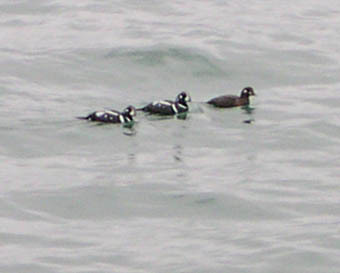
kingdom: Animalia
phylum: Chordata
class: Aves
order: Anseriformes
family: Anatidae
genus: Histrionicus
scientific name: Histrionicus histrionicus
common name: Harlequin duck
